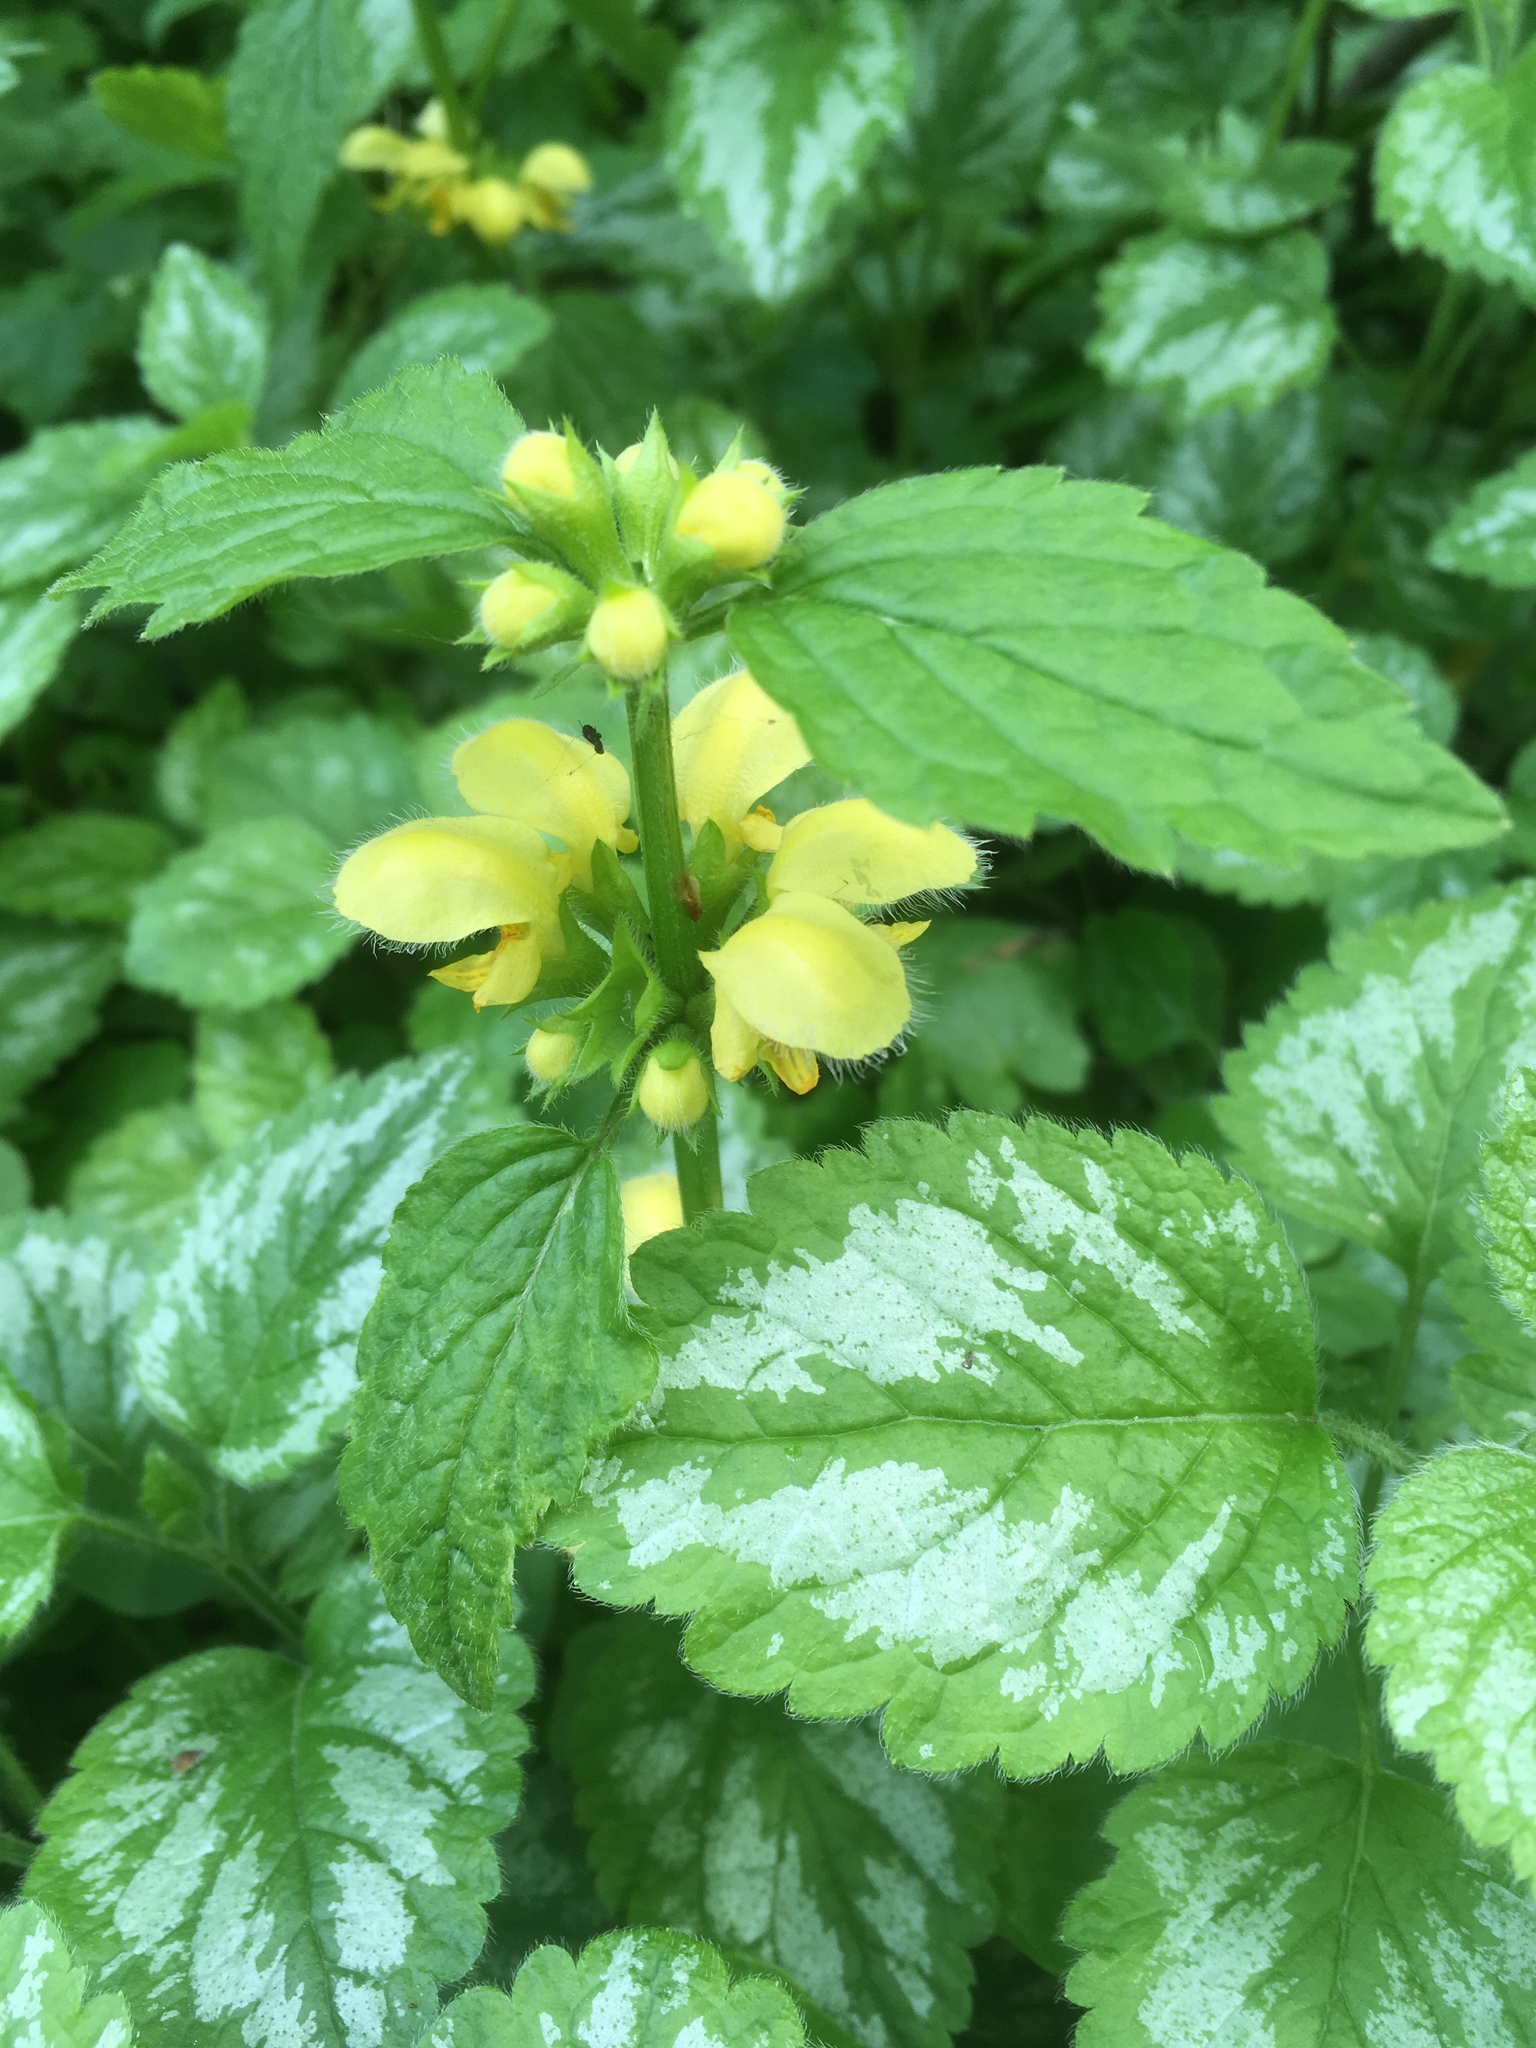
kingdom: Plantae
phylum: Tracheophyta
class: Magnoliopsida
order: Lamiales
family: Lamiaceae
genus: Lamium
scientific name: Lamium galeobdolon
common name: Yellow archangel
